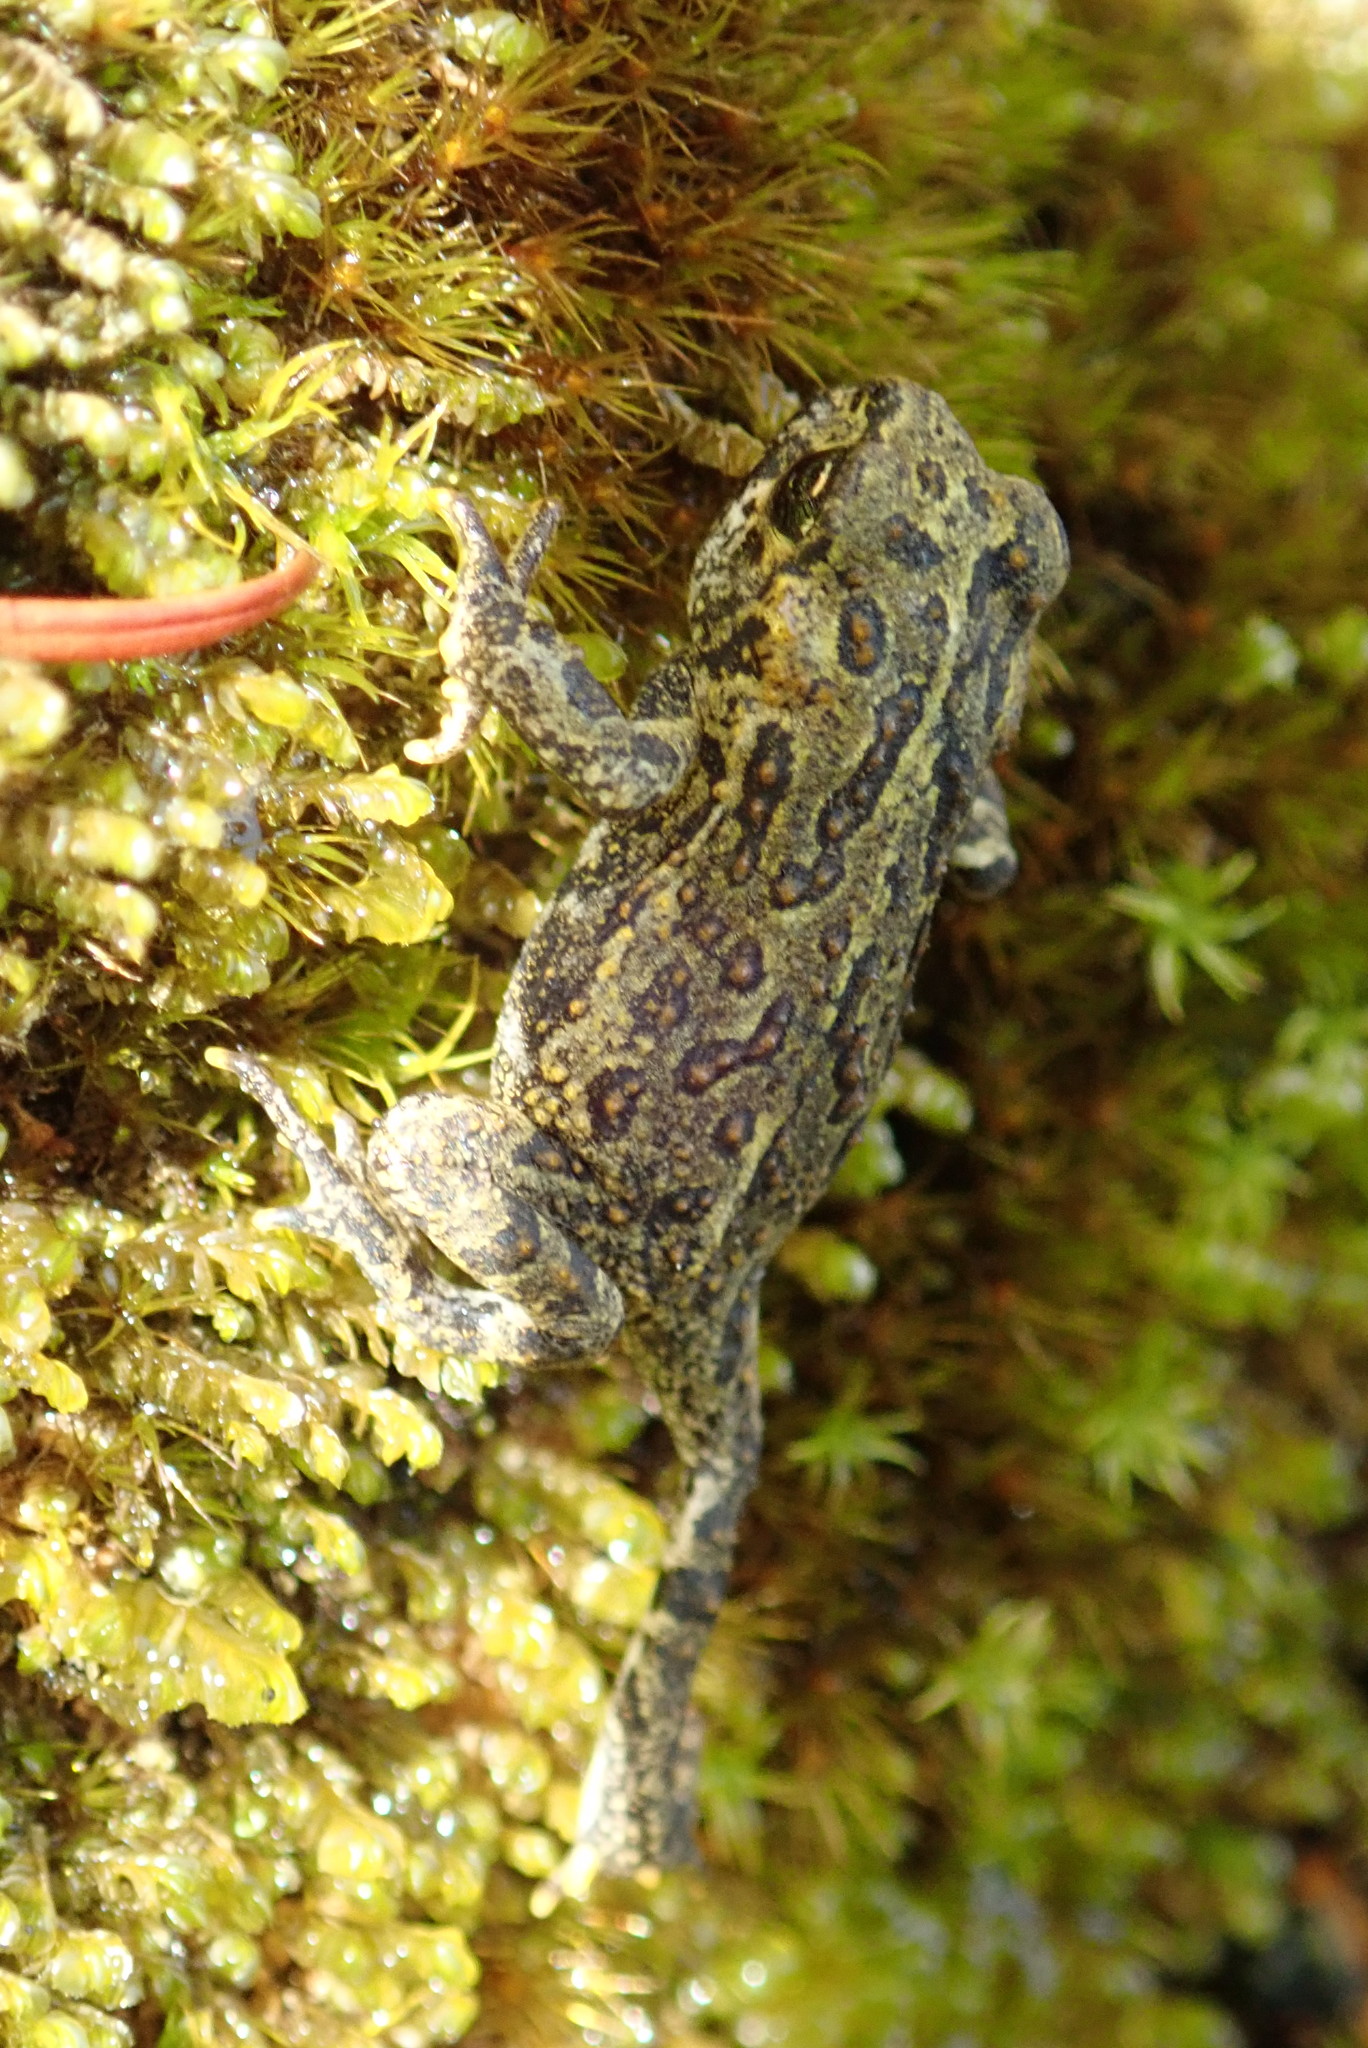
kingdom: Animalia
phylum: Chordata
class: Amphibia
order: Anura
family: Bufonidae
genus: Anaxyrus
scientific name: Anaxyrus boreas
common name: Western toad
